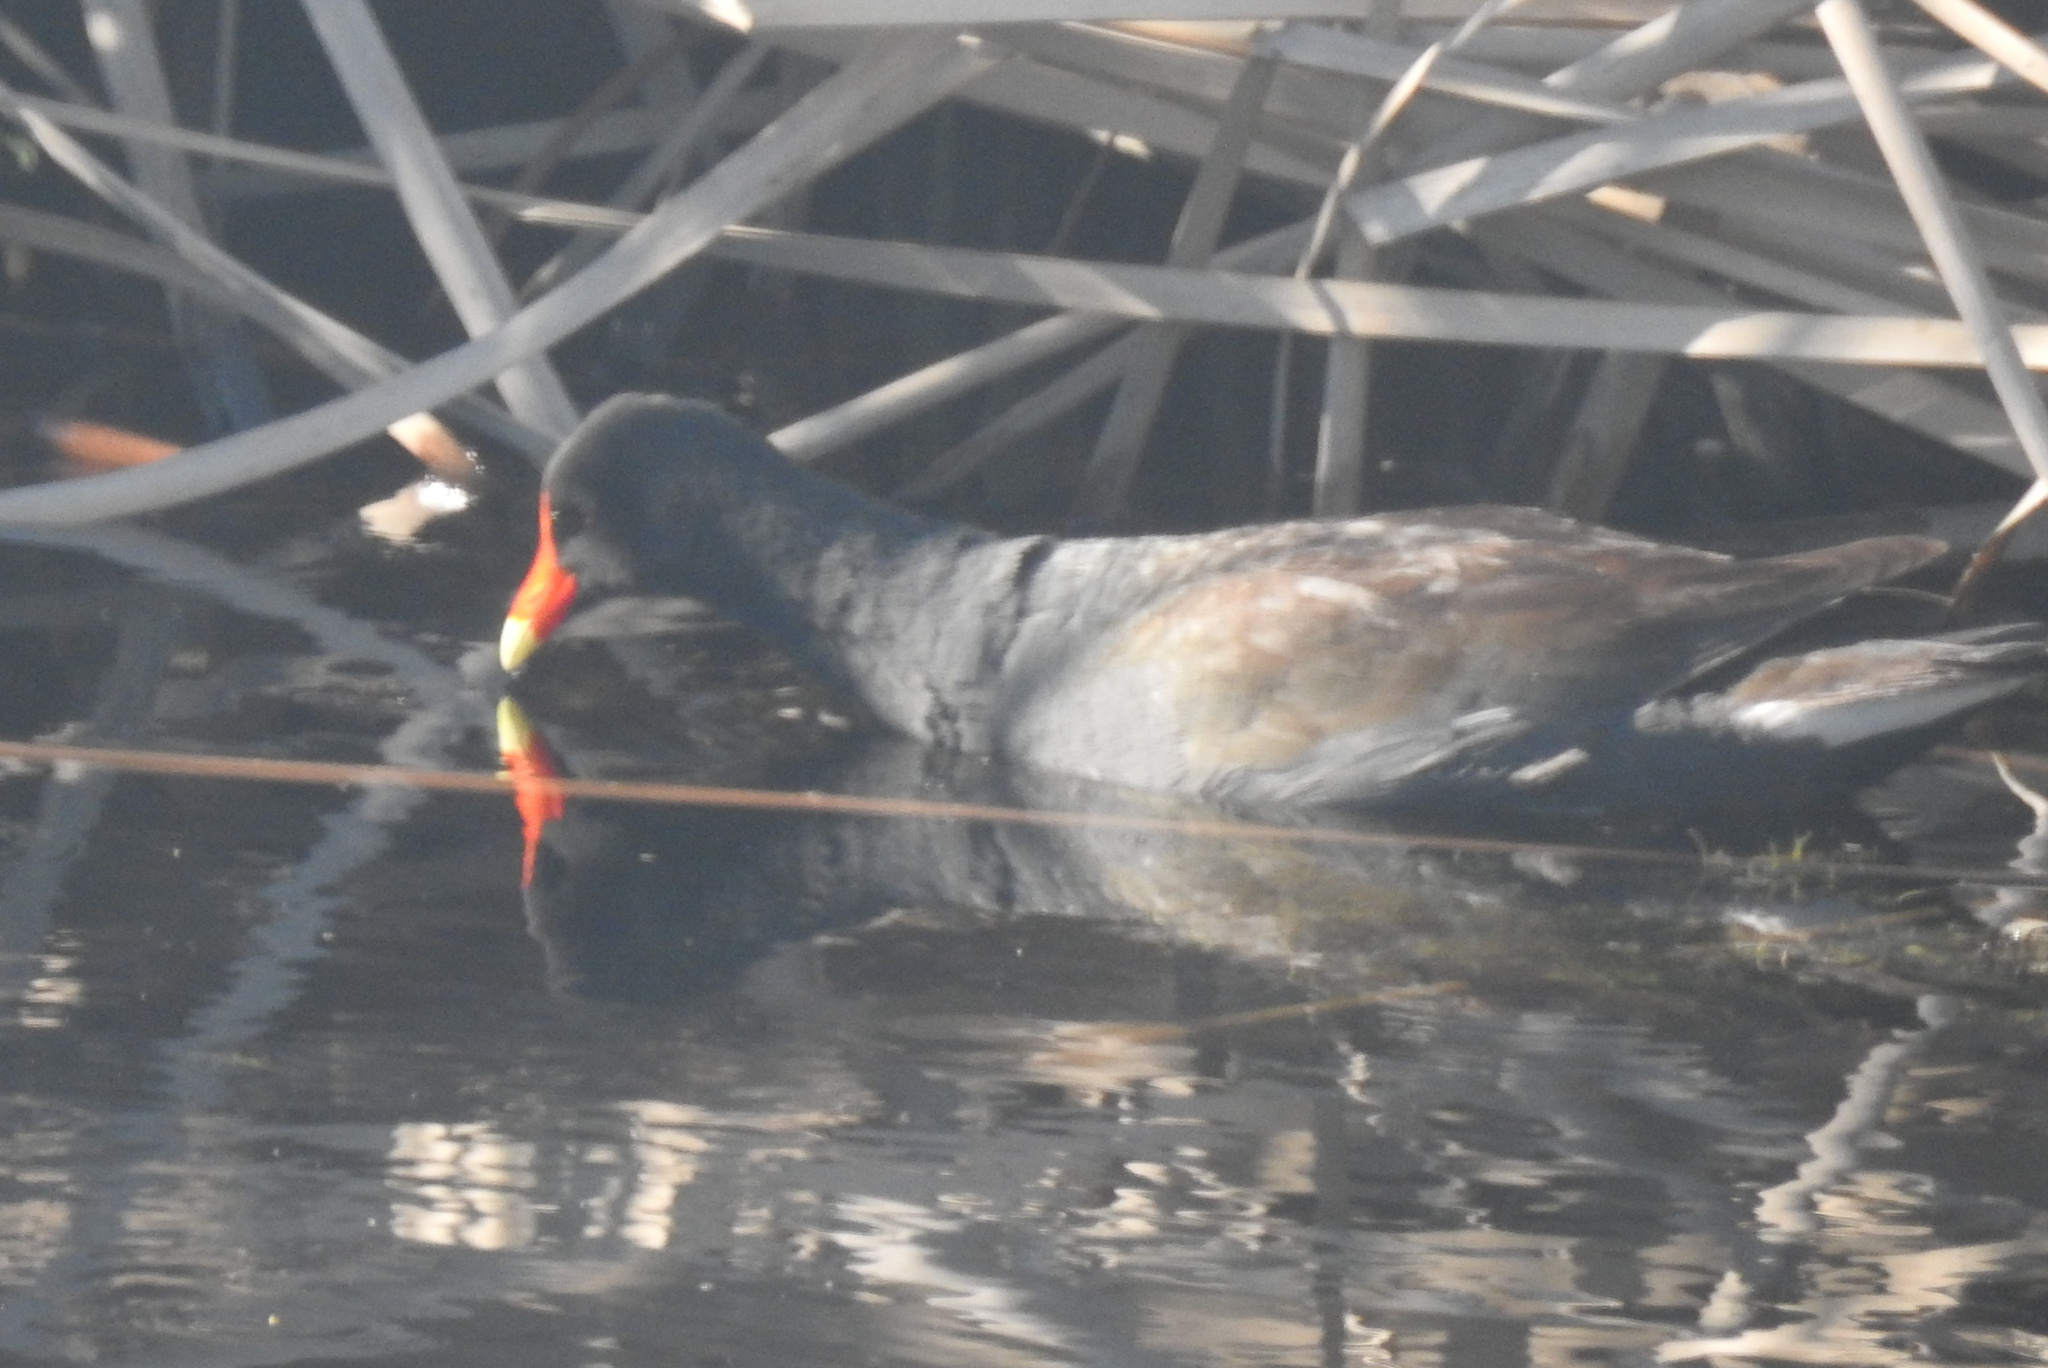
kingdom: Animalia
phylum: Chordata
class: Aves
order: Gruiformes
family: Rallidae
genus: Gallinula
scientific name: Gallinula chloropus
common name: Common moorhen
